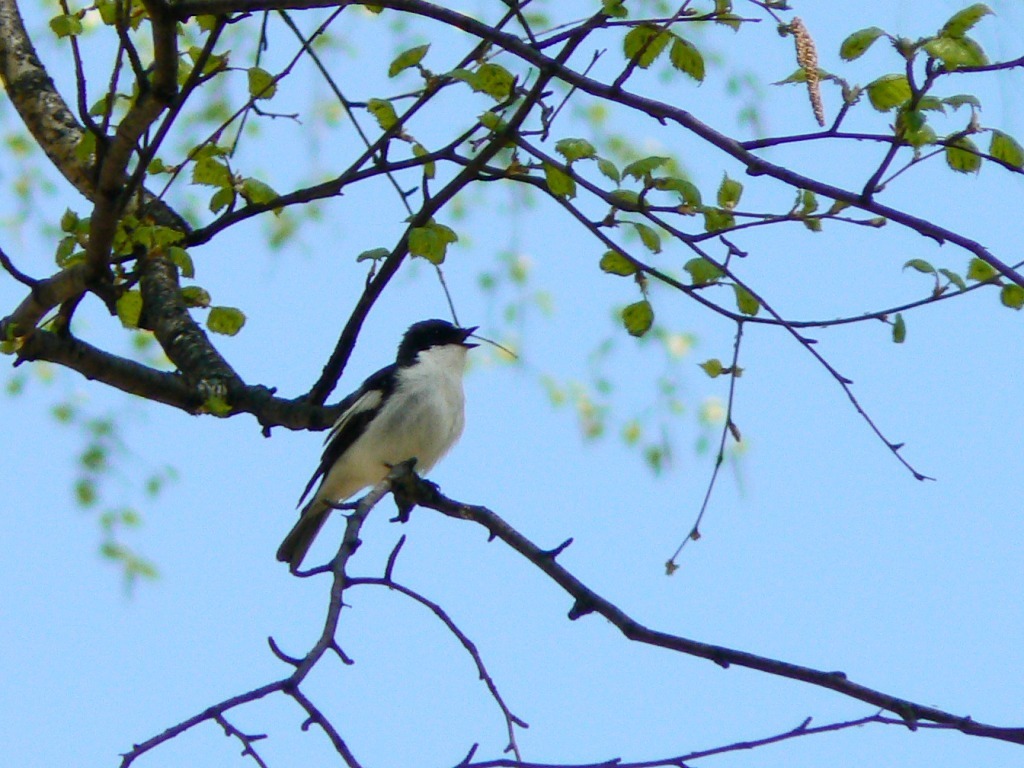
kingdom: Animalia
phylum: Chordata
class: Aves
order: Passeriformes
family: Muscicapidae
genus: Ficedula
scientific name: Ficedula hypoleuca
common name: European pied flycatcher
